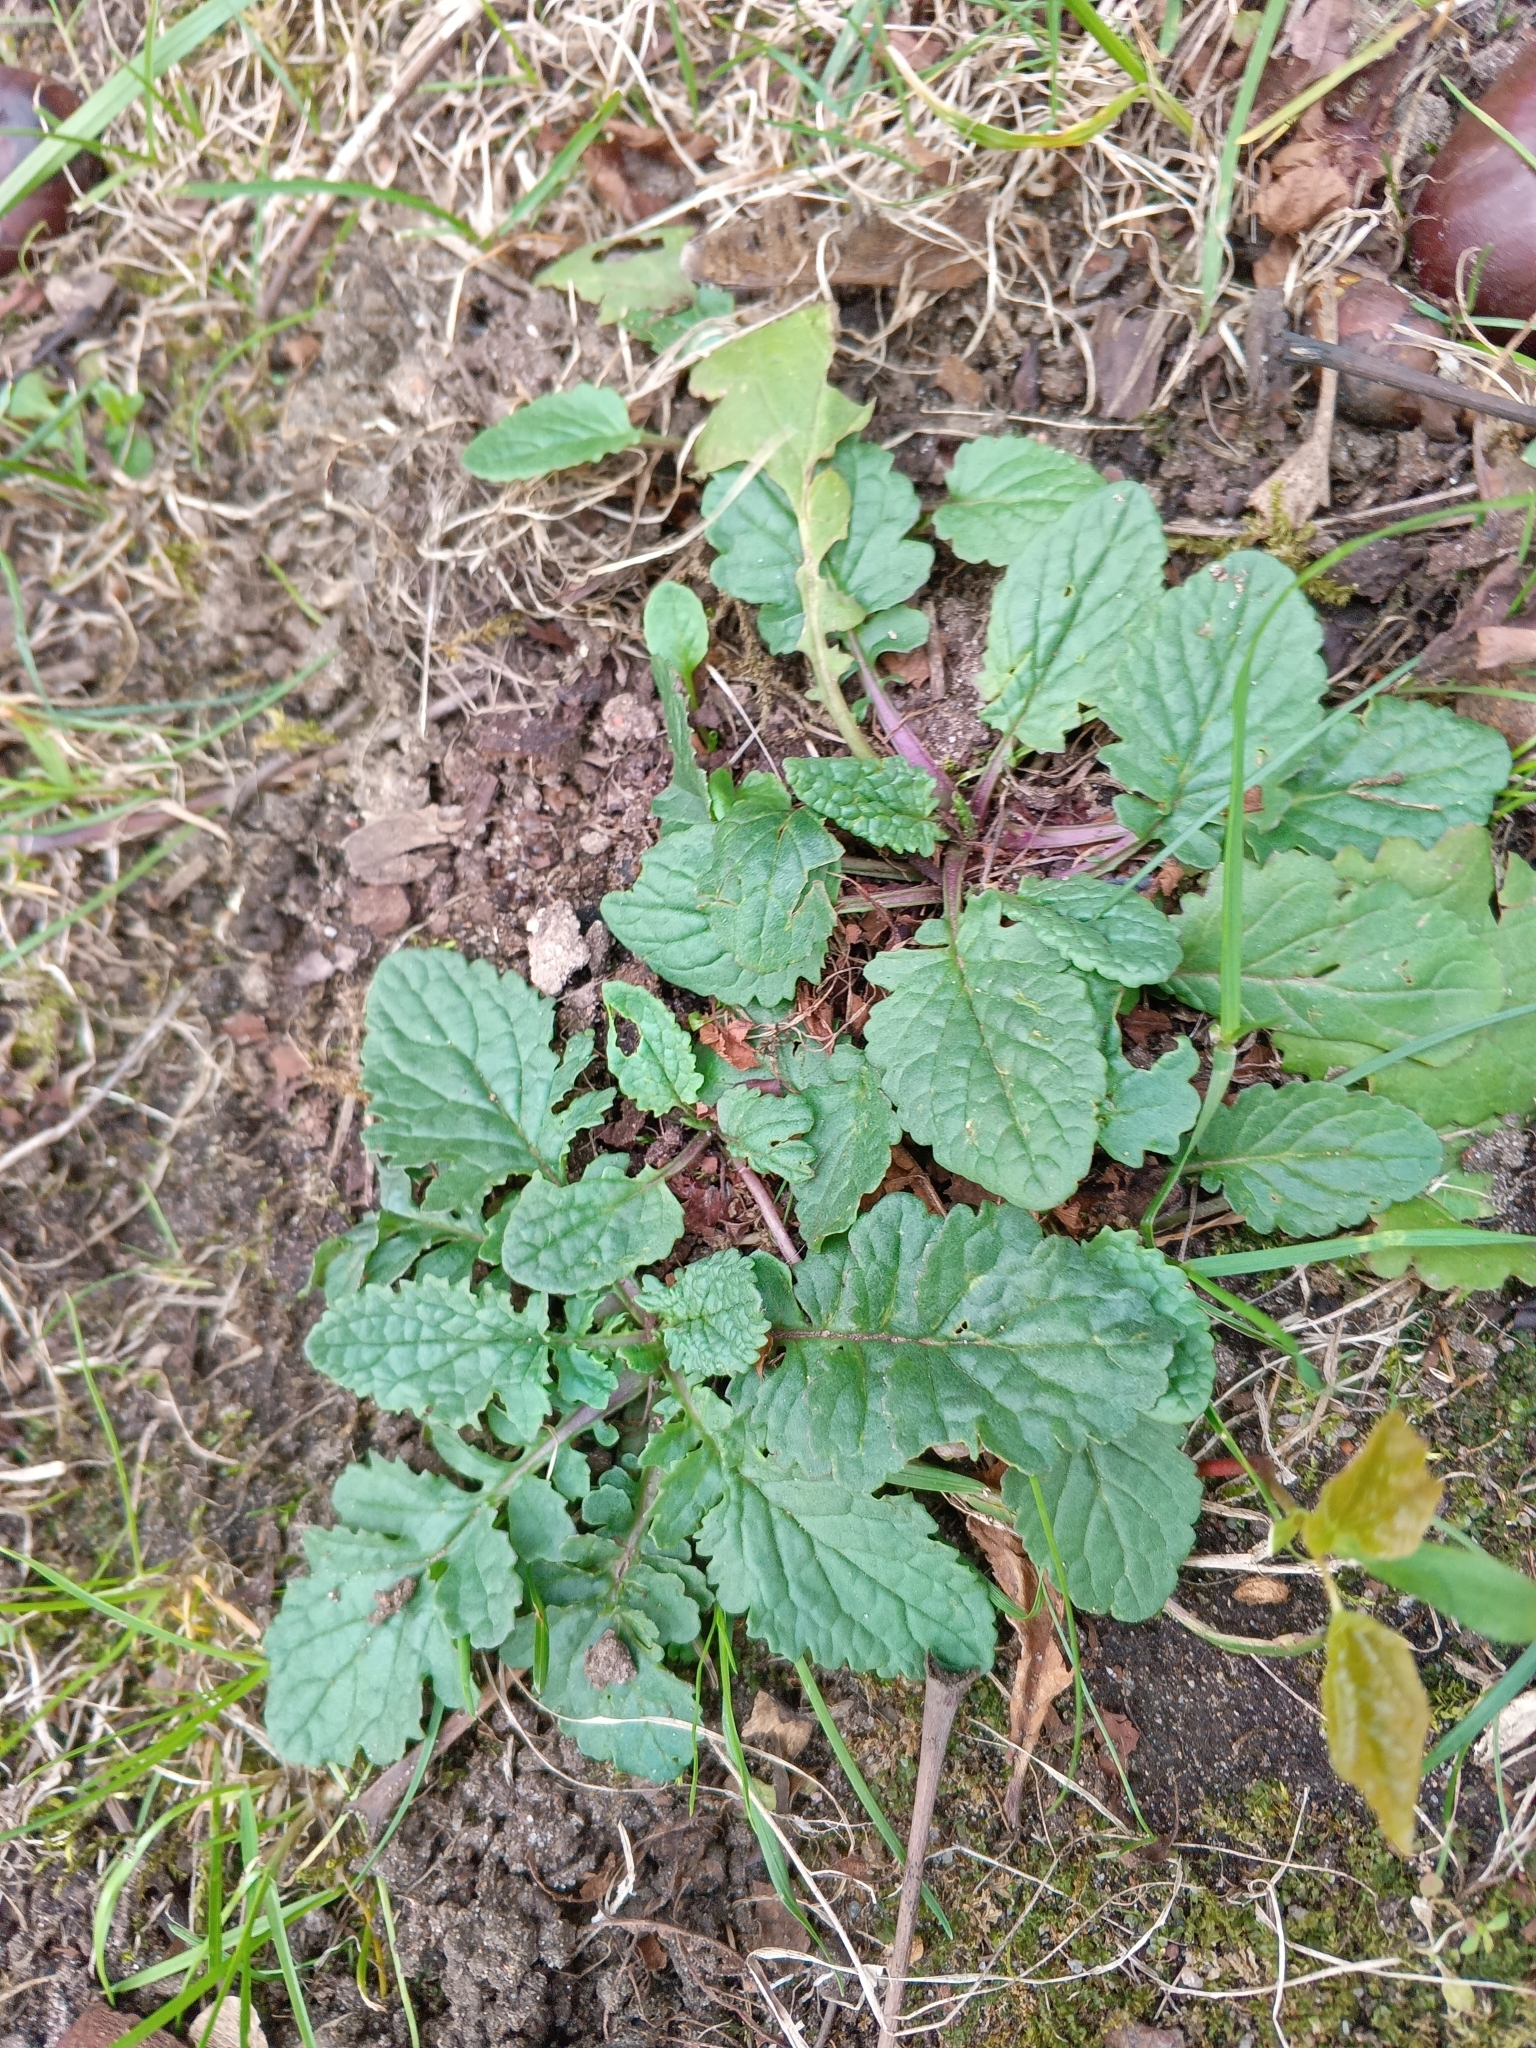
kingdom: Plantae
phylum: Tracheophyta
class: Magnoliopsida
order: Asterales
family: Asteraceae
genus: Jacobaea
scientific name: Jacobaea vulgaris
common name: Stinking willie
